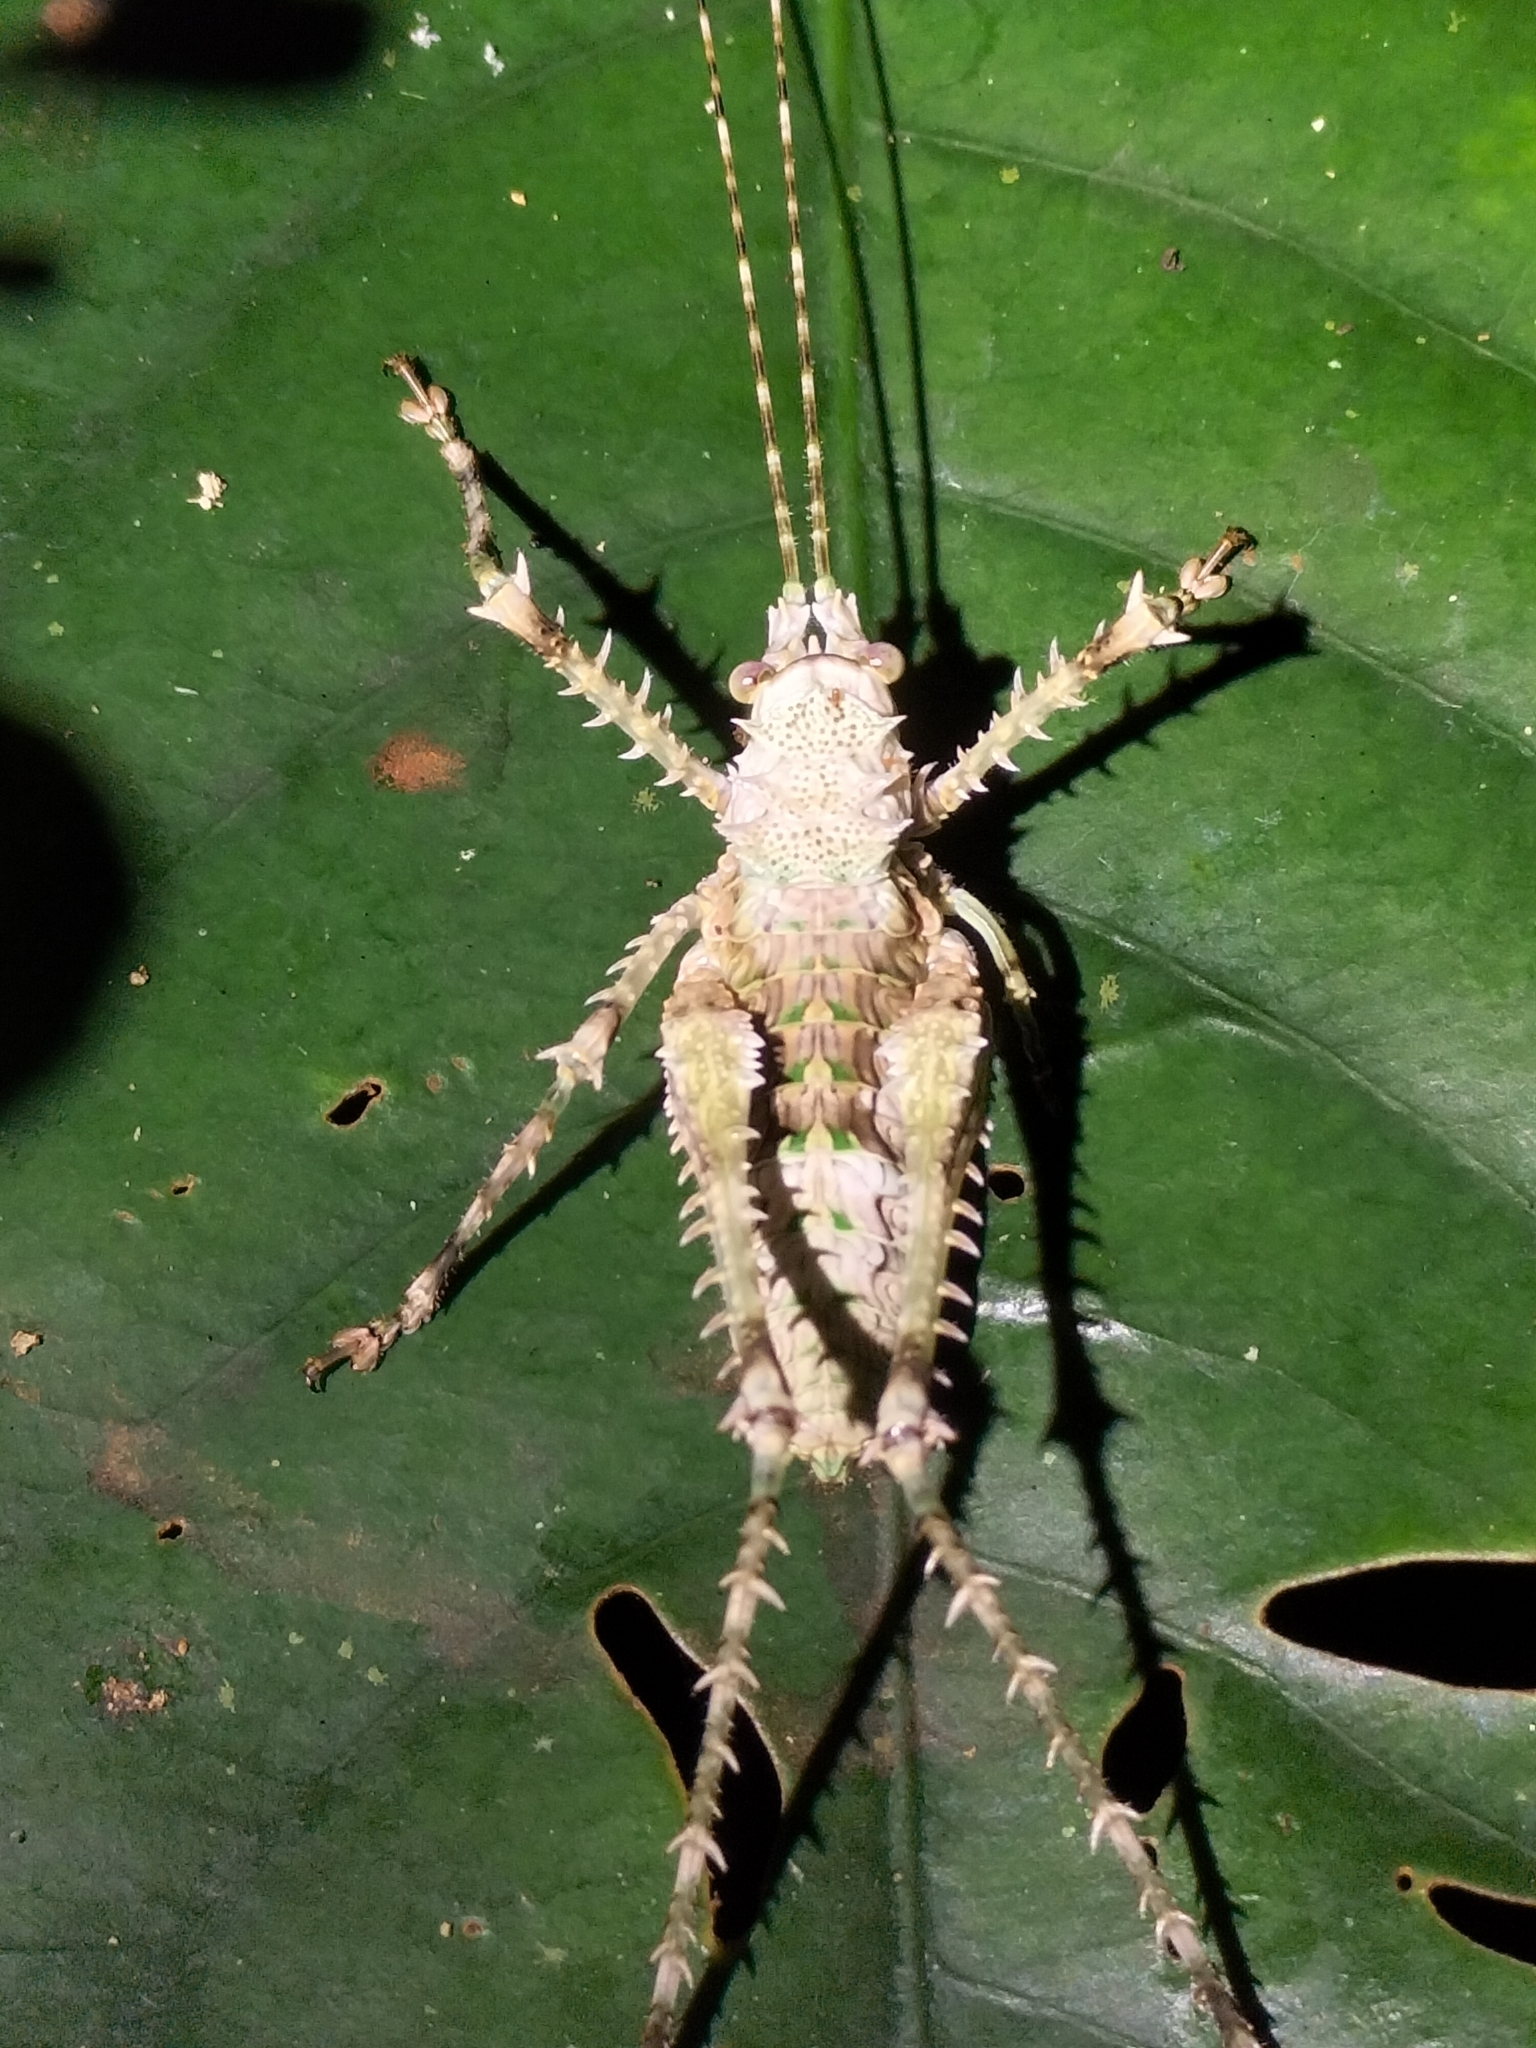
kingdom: Animalia
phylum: Arthropoda
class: Insecta
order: Orthoptera
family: Tettigoniidae
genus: Phricta
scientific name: Phricta spinosa
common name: Giant spiny forest katydid
